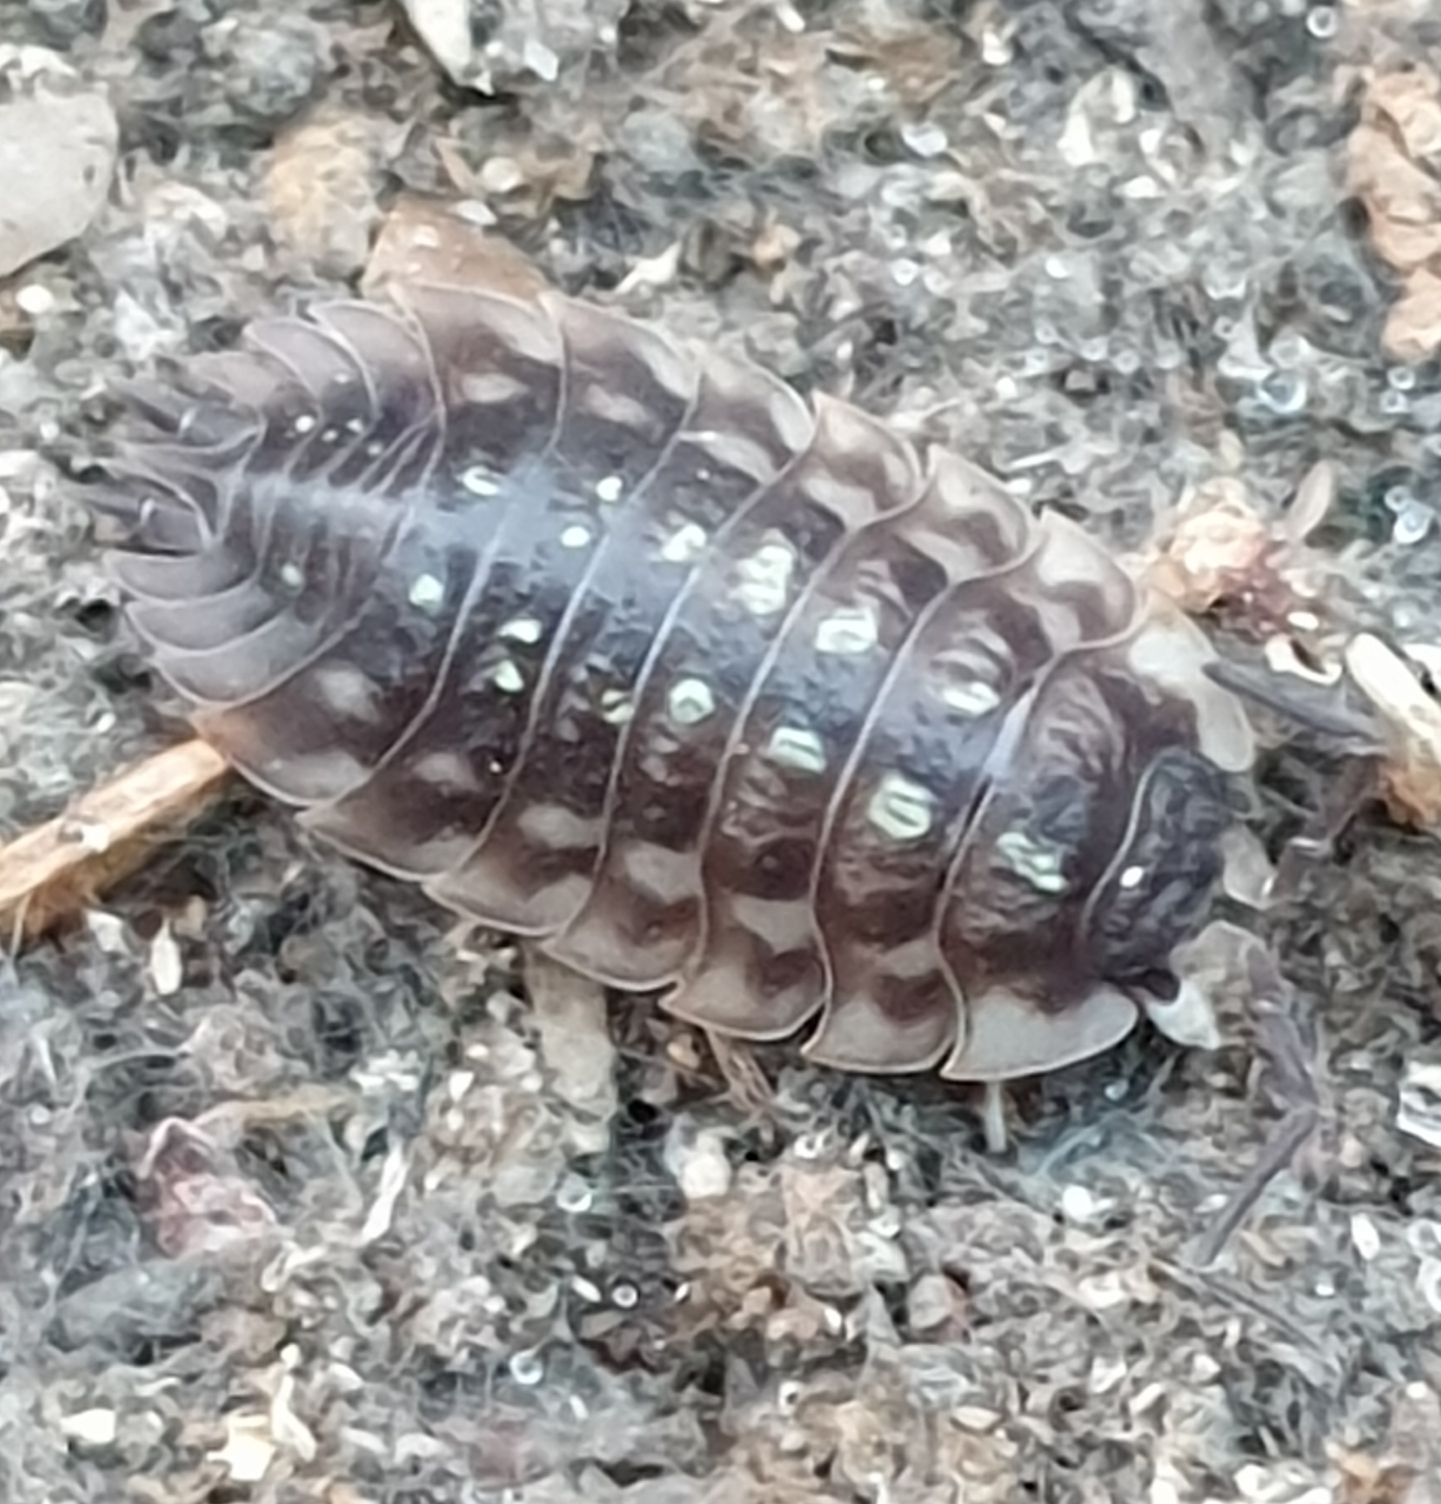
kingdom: Animalia
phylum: Arthropoda
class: Malacostraca
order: Isopoda
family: Oniscidae
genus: Oniscus
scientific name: Oniscus asellus
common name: Common shiny woodlouse
